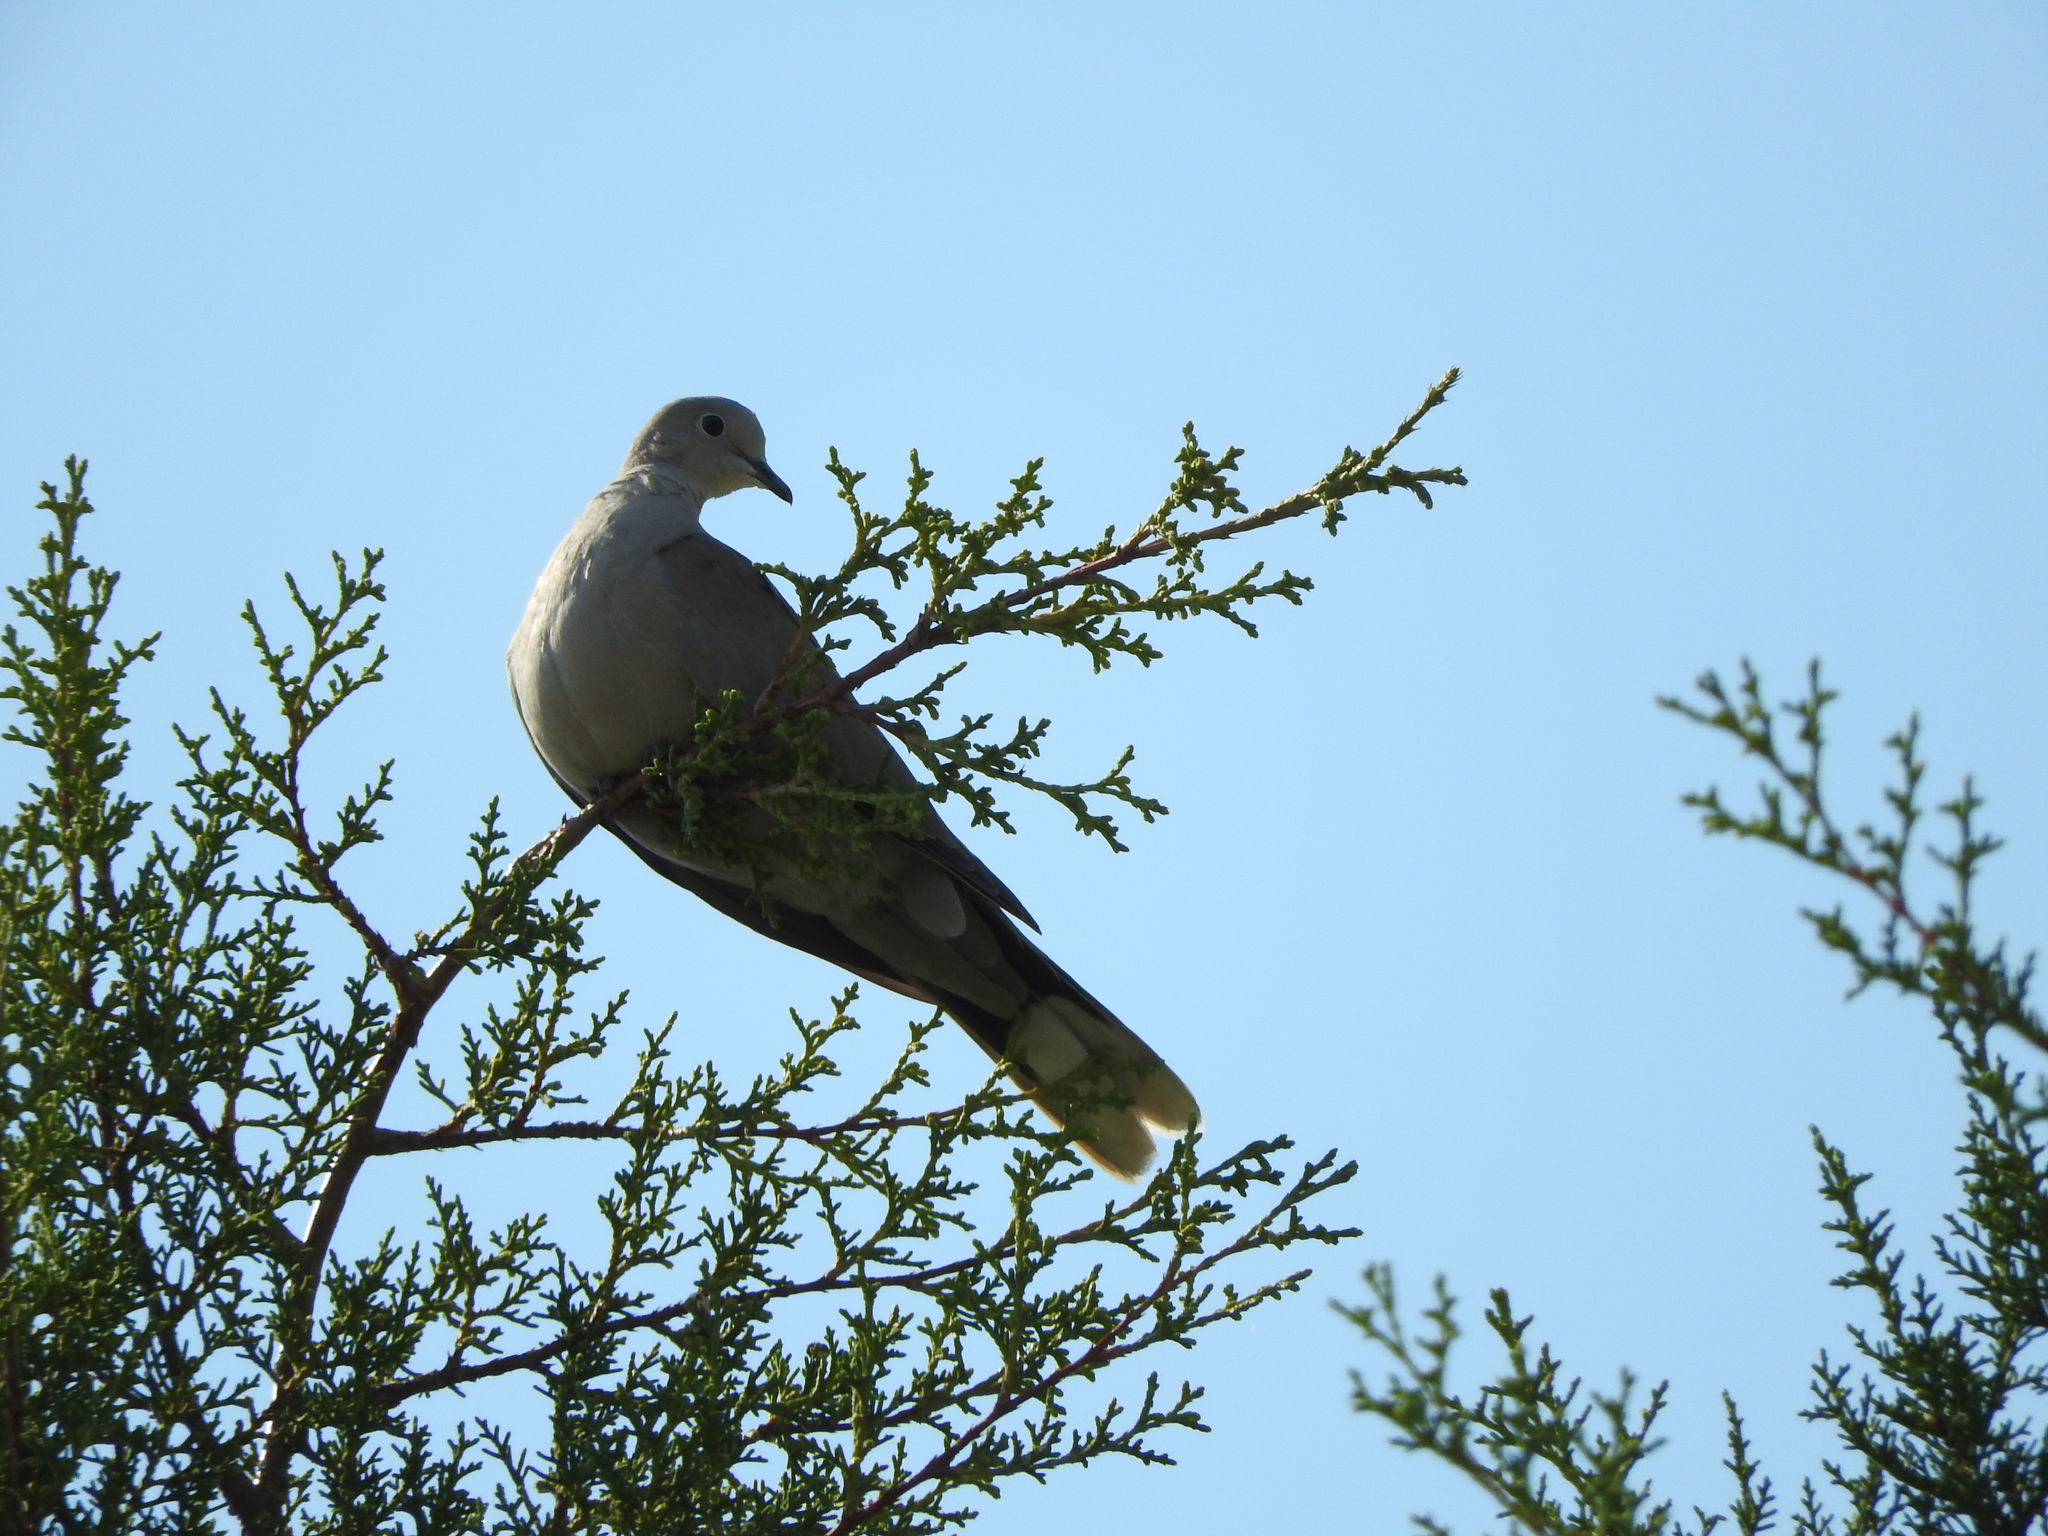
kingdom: Animalia
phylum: Chordata
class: Aves
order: Columbiformes
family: Columbidae
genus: Streptopelia
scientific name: Streptopelia decaocto
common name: Eurasian collared dove
